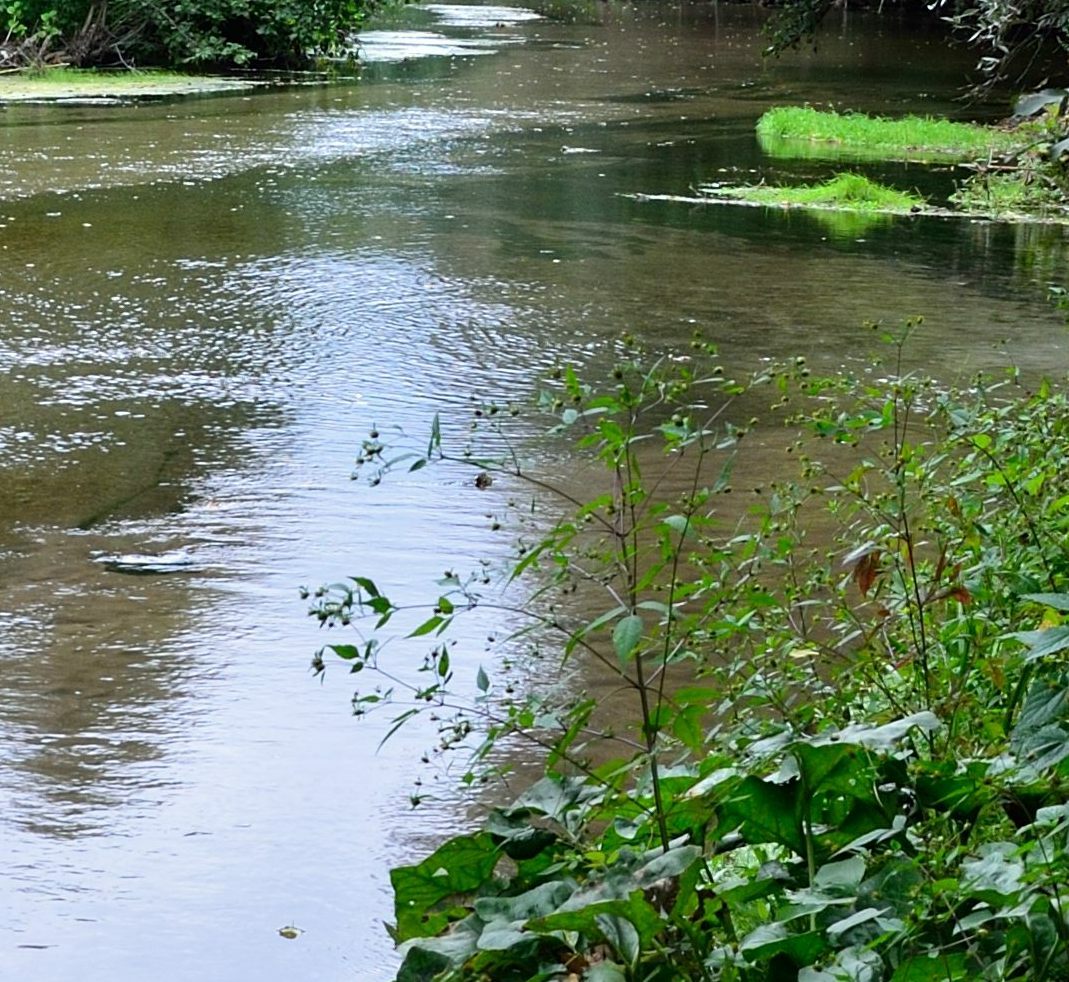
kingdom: Plantae
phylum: Tracheophyta
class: Magnoliopsida
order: Asterales
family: Asteraceae
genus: Bidens
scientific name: Bidens frondosa
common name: Beggarticks
